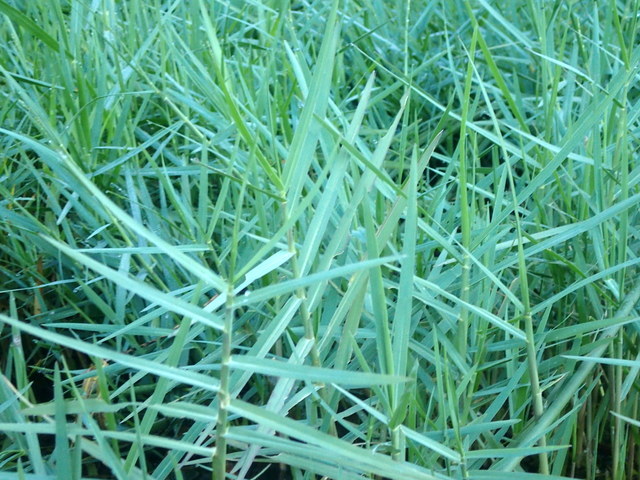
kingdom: Plantae
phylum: Tracheophyta
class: Liliopsida
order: Poales
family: Poaceae
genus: Panicum
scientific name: Panicum repens
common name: Torpedo grass
